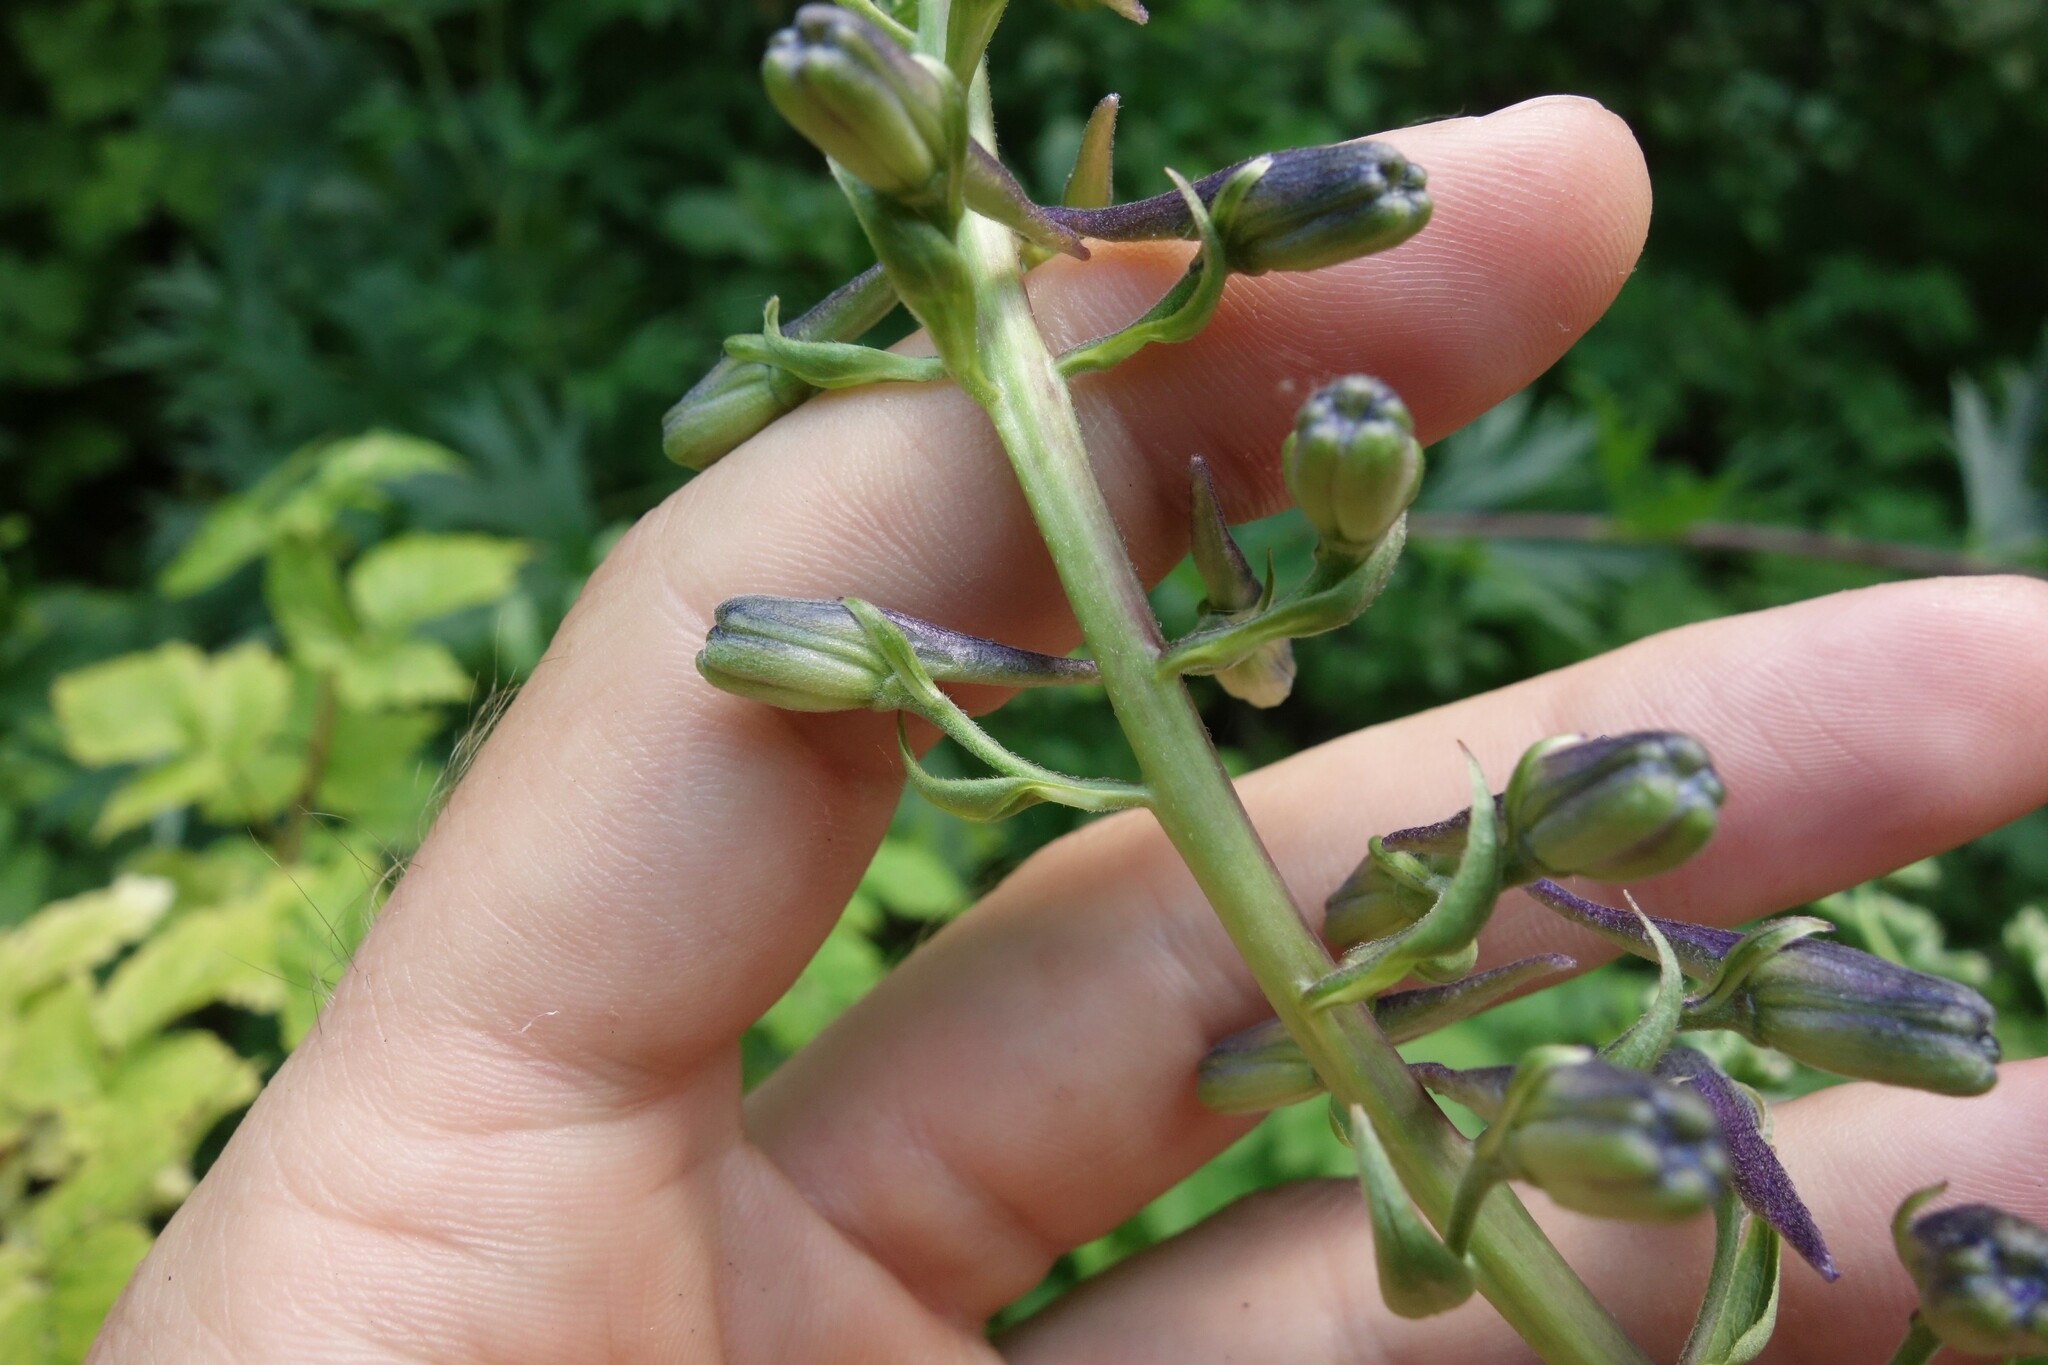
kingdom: Plantae
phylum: Tracheophyta
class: Magnoliopsida
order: Ranunculales
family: Ranunculaceae
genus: Delphinium
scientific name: Delphinium cuneatum
